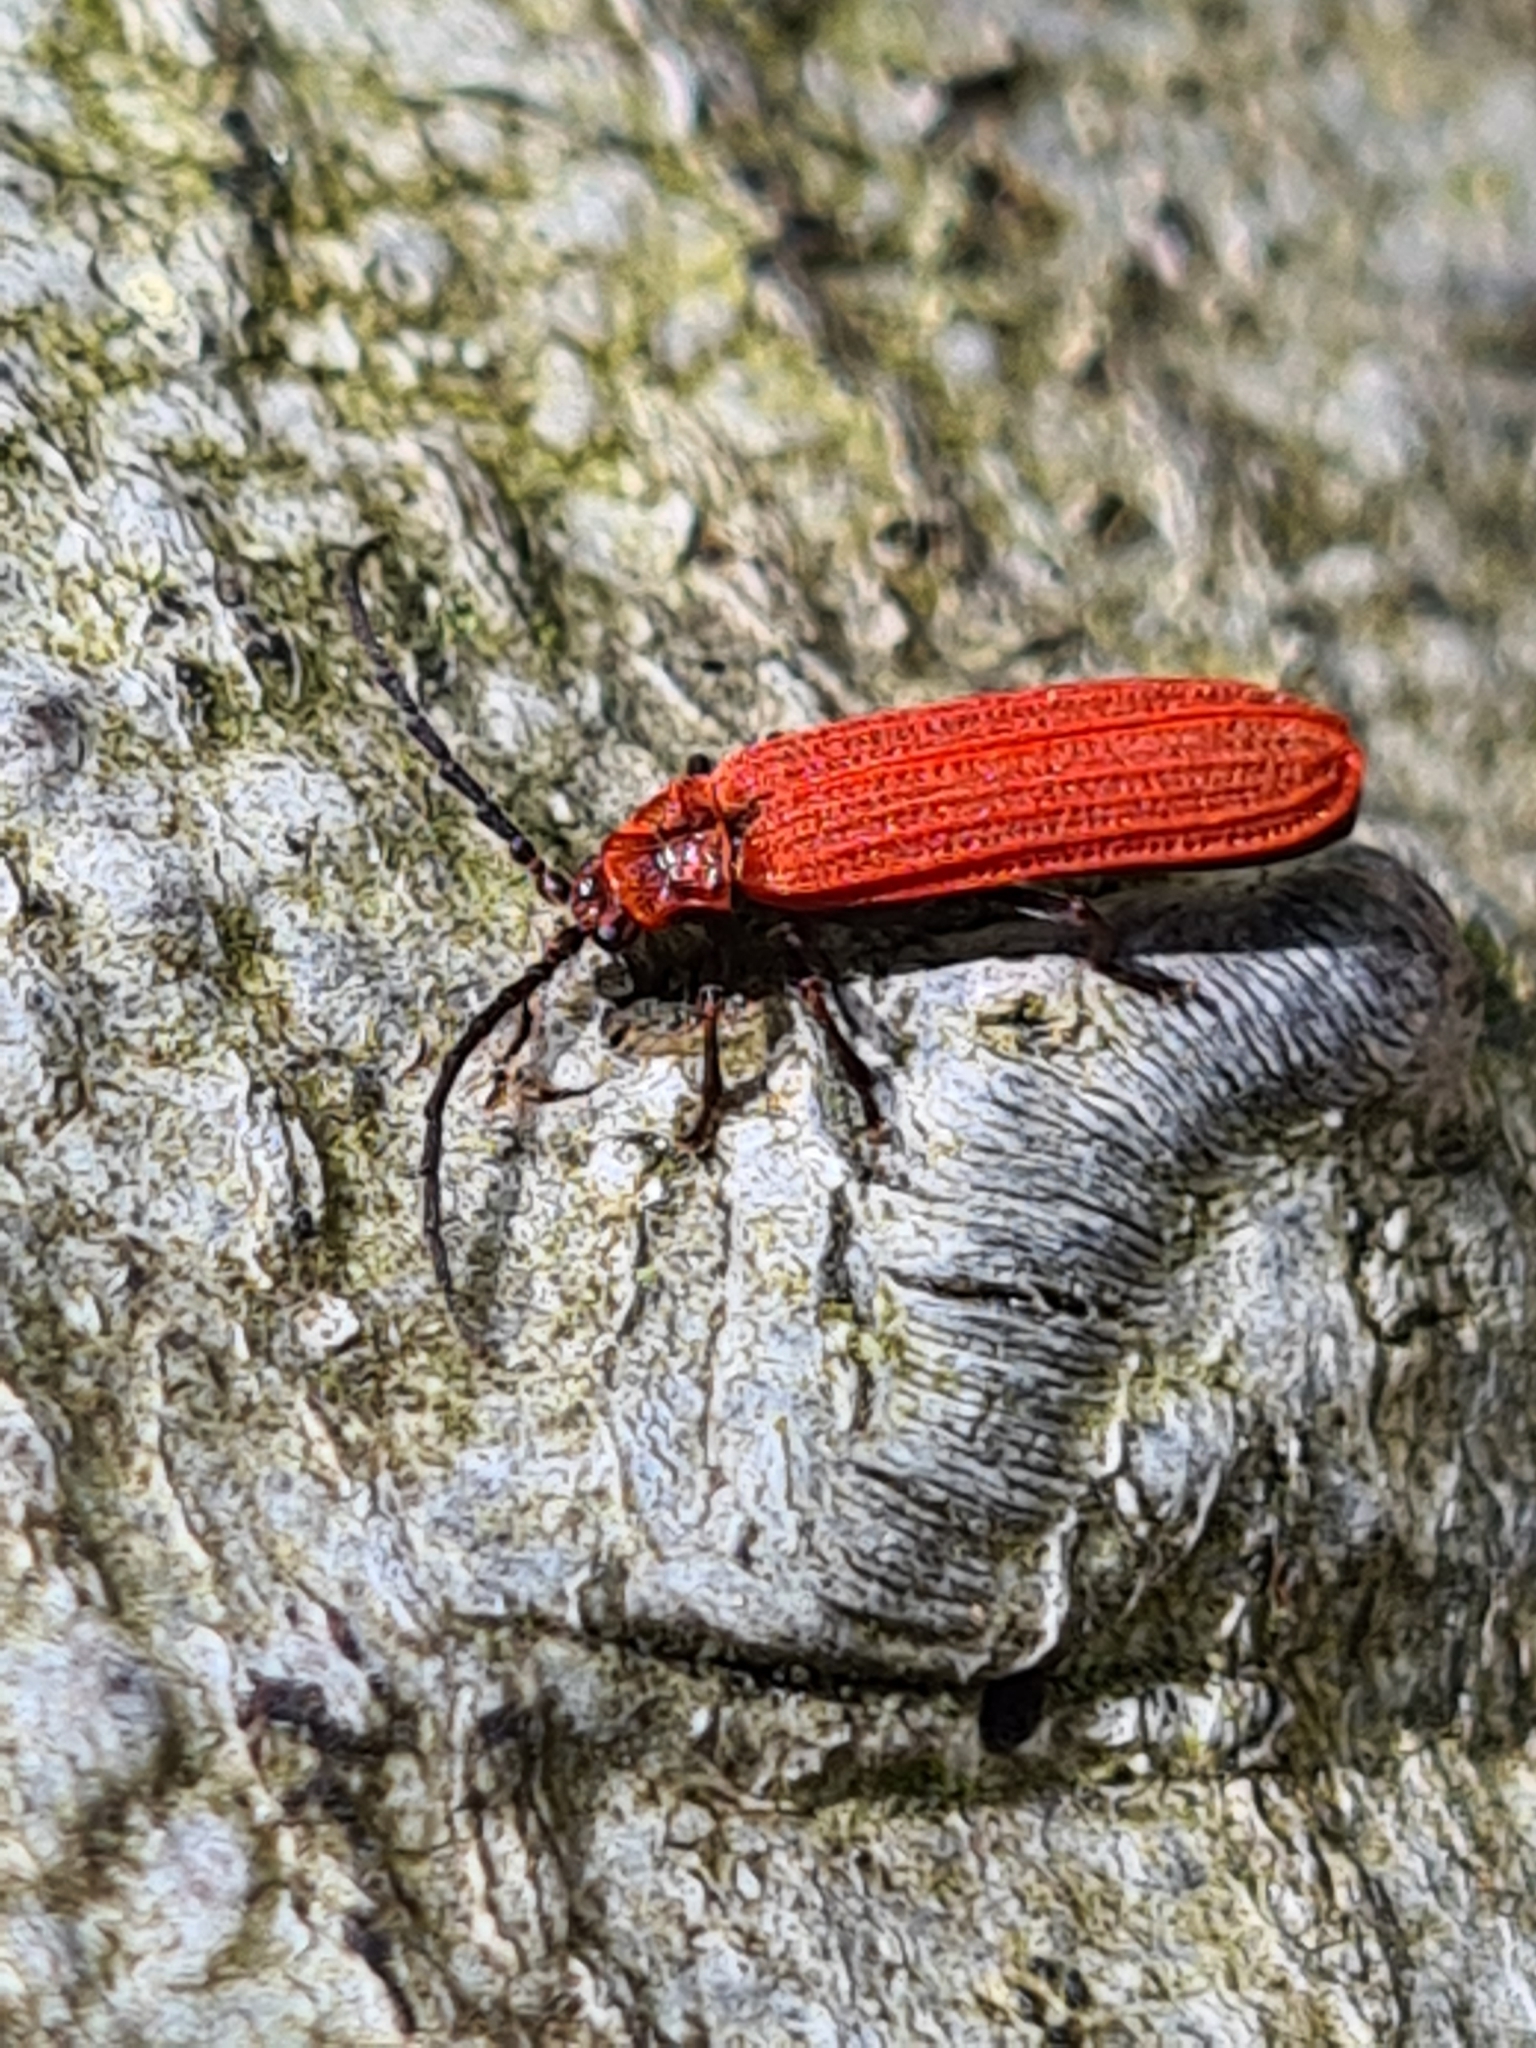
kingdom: Animalia
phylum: Arthropoda
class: Insecta
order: Coleoptera
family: Lycidae
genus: Lopheros
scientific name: Lopheros rubens
